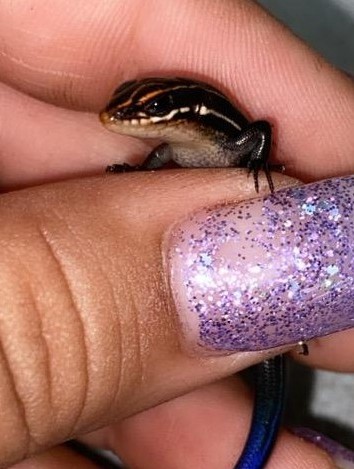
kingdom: Animalia
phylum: Chordata
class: Squamata
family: Scincidae
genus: Plestiodon
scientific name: Plestiodon inexpectatus
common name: Southeastern five-lined skink
